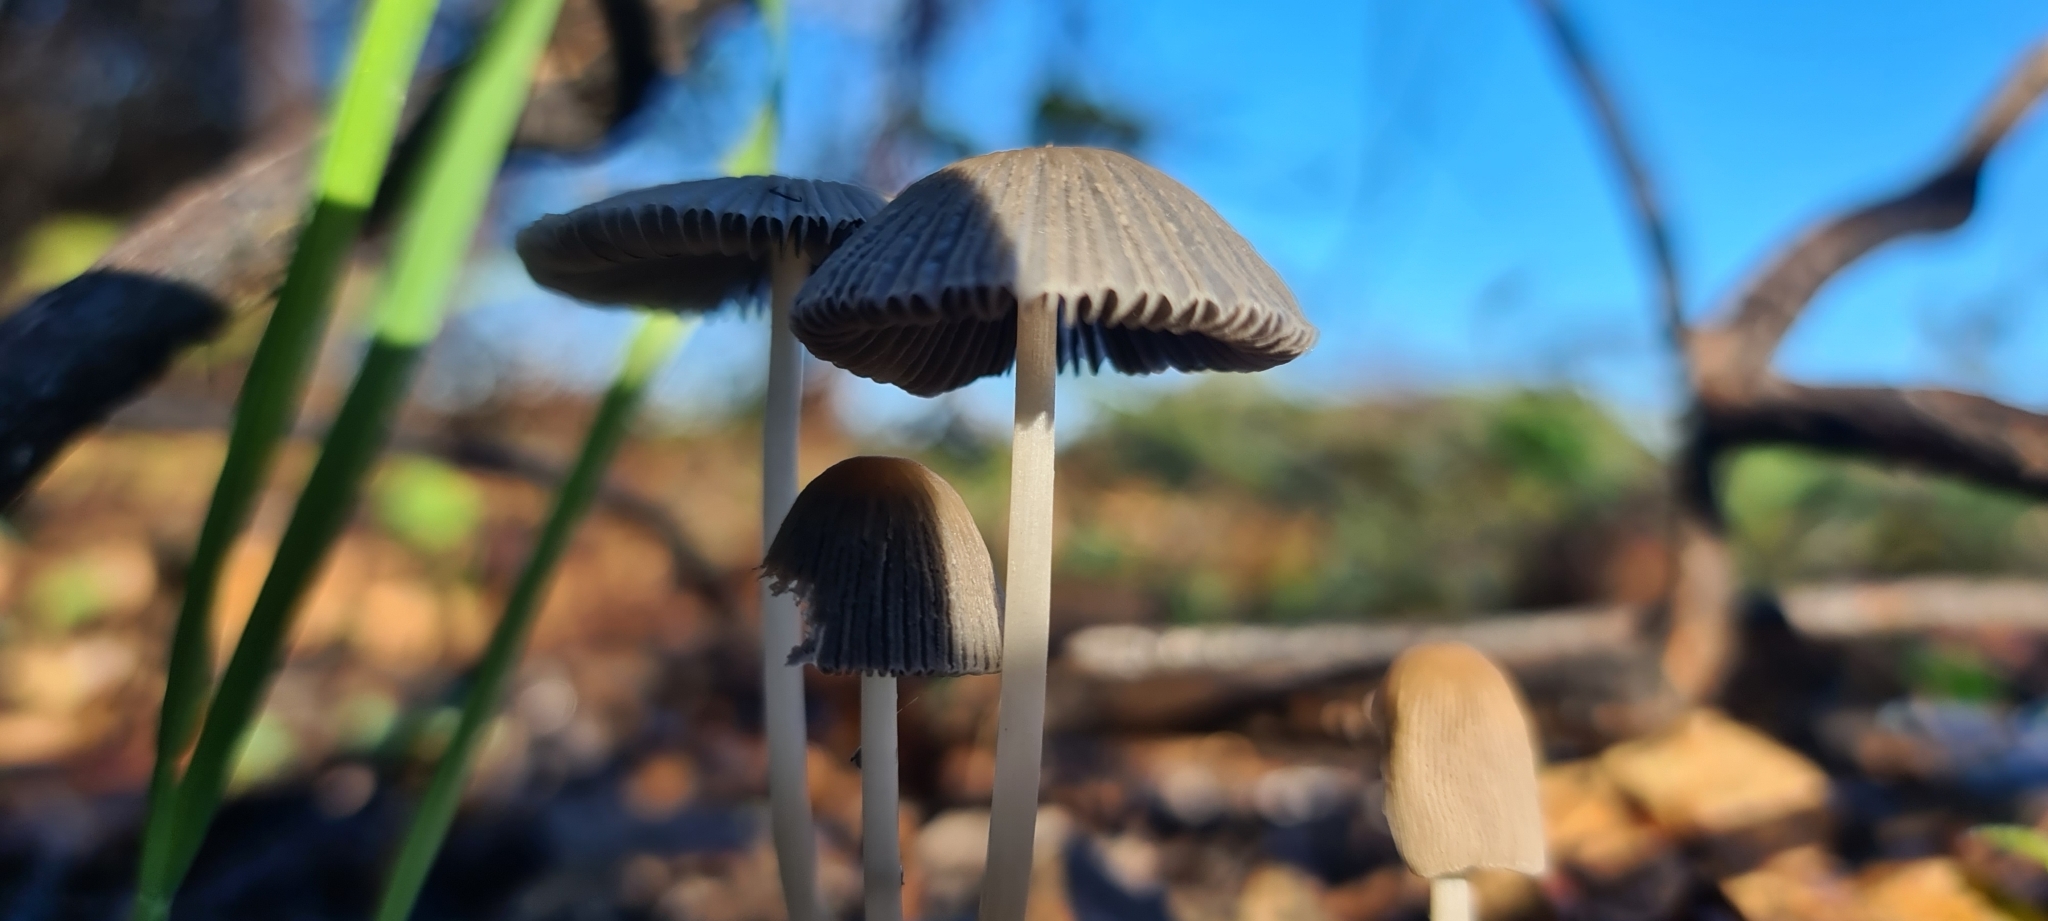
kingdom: Fungi
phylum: Basidiomycota
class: Agaricomycetes
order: Agaricales
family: Psathyrellaceae
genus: Parasola
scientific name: Parasola plicatilis
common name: Pleated inkcap
